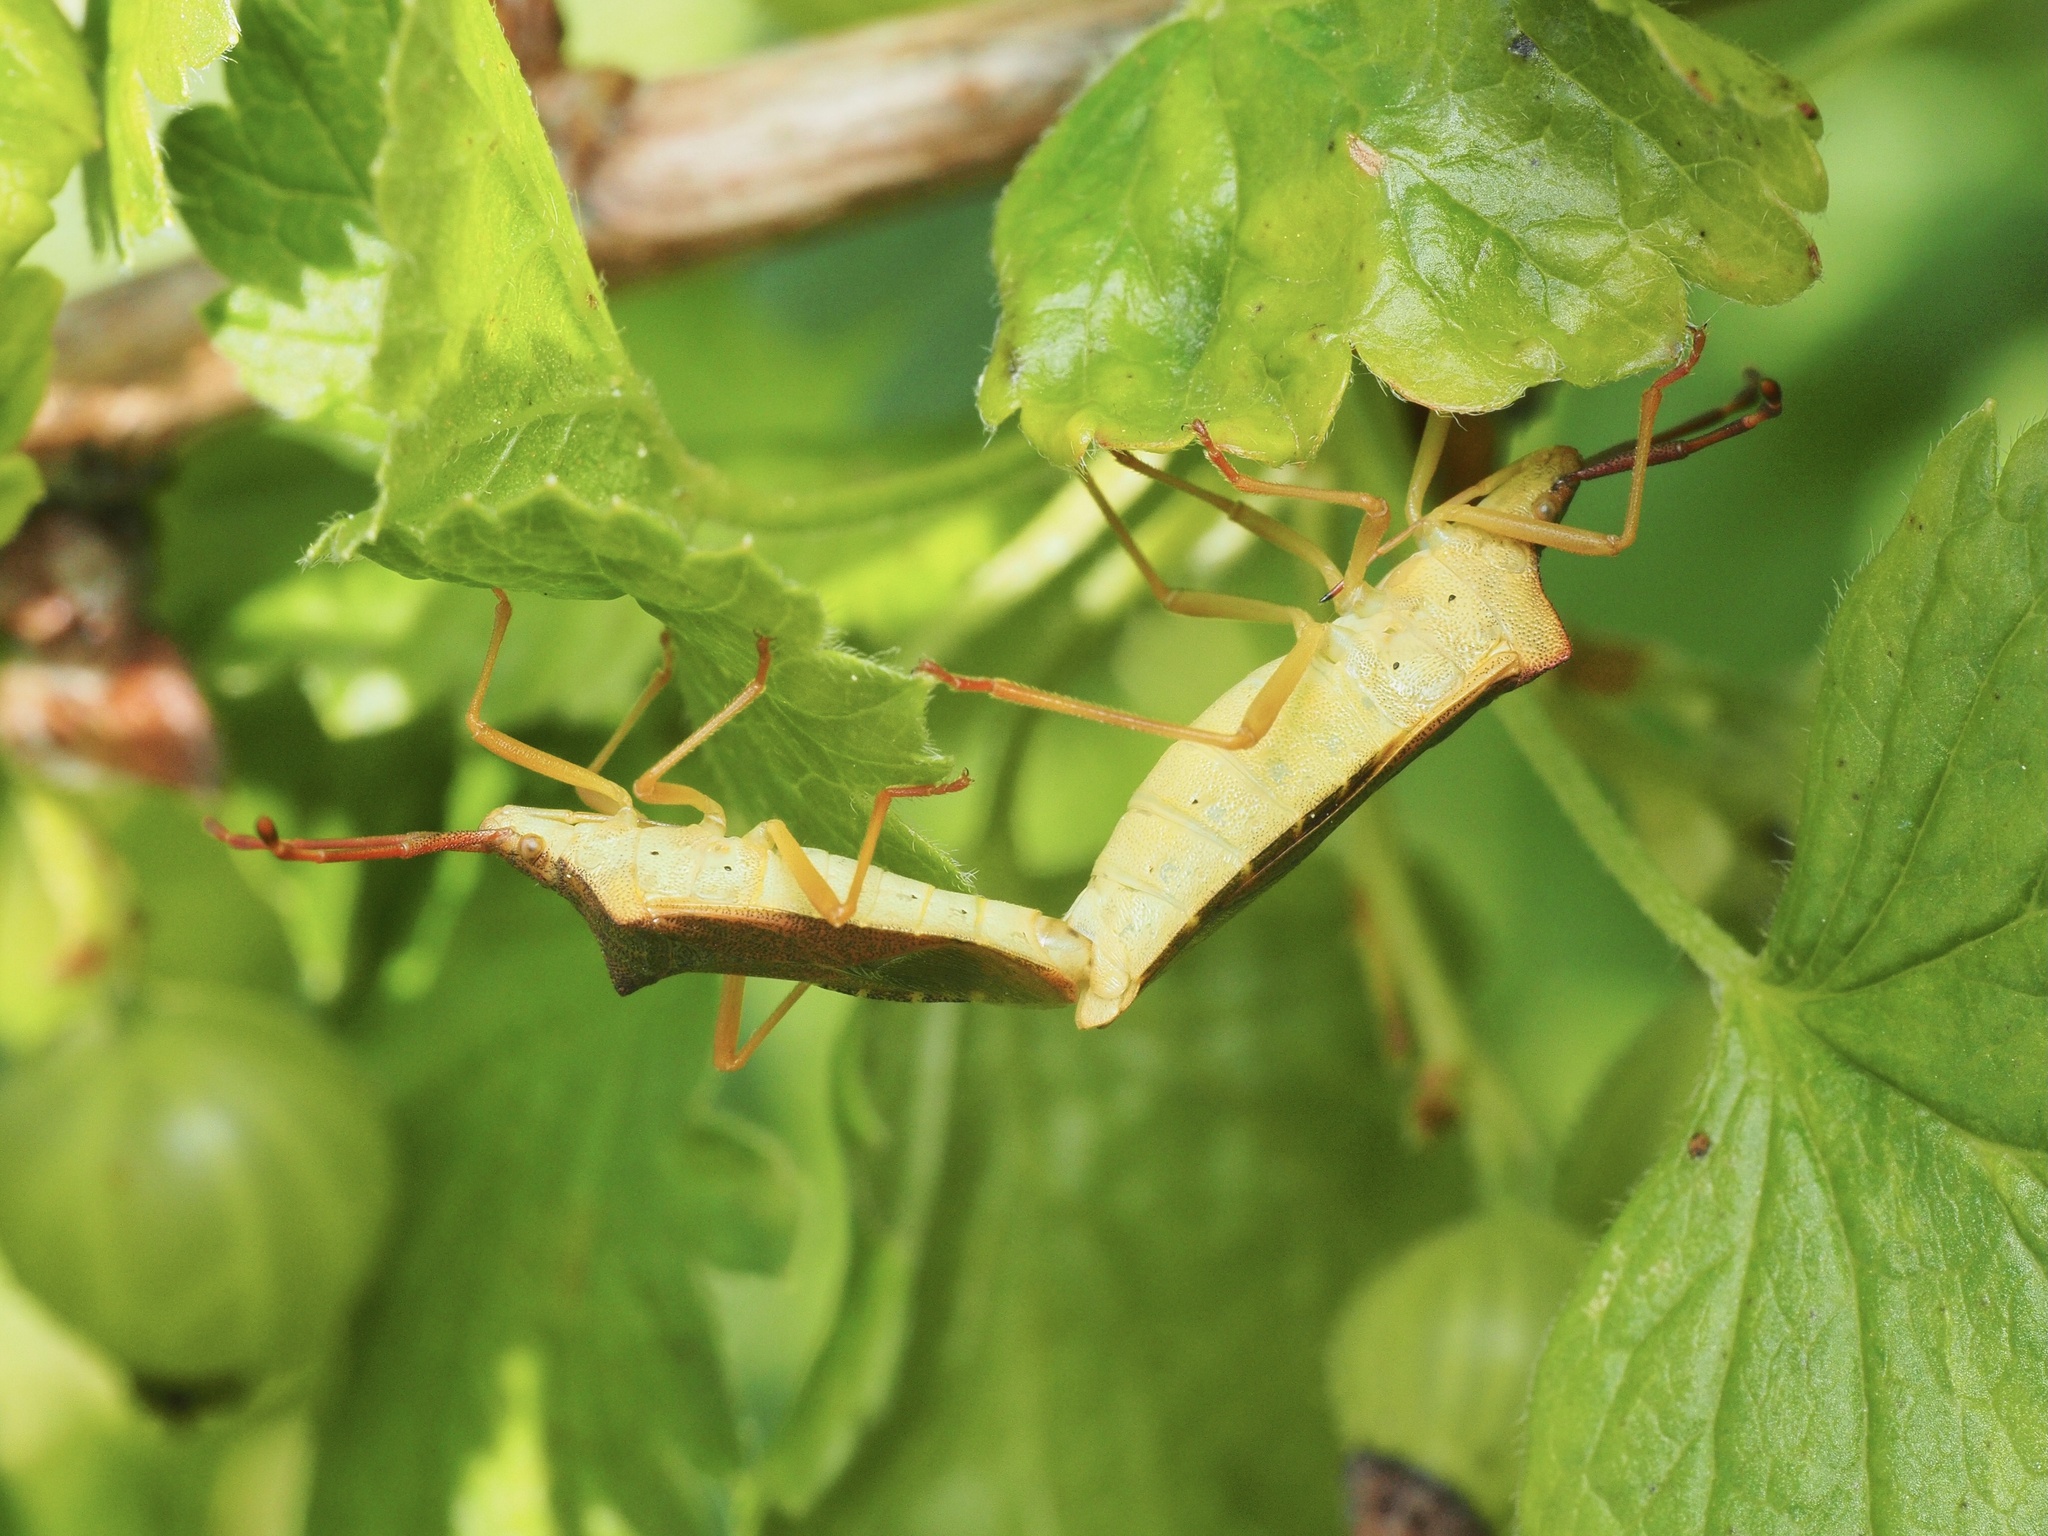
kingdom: Animalia
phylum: Arthropoda
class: Insecta
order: Hemiptera
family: Coreidae
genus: Gonocerus
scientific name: Gonocerus acuteangulatus
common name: Box bug
